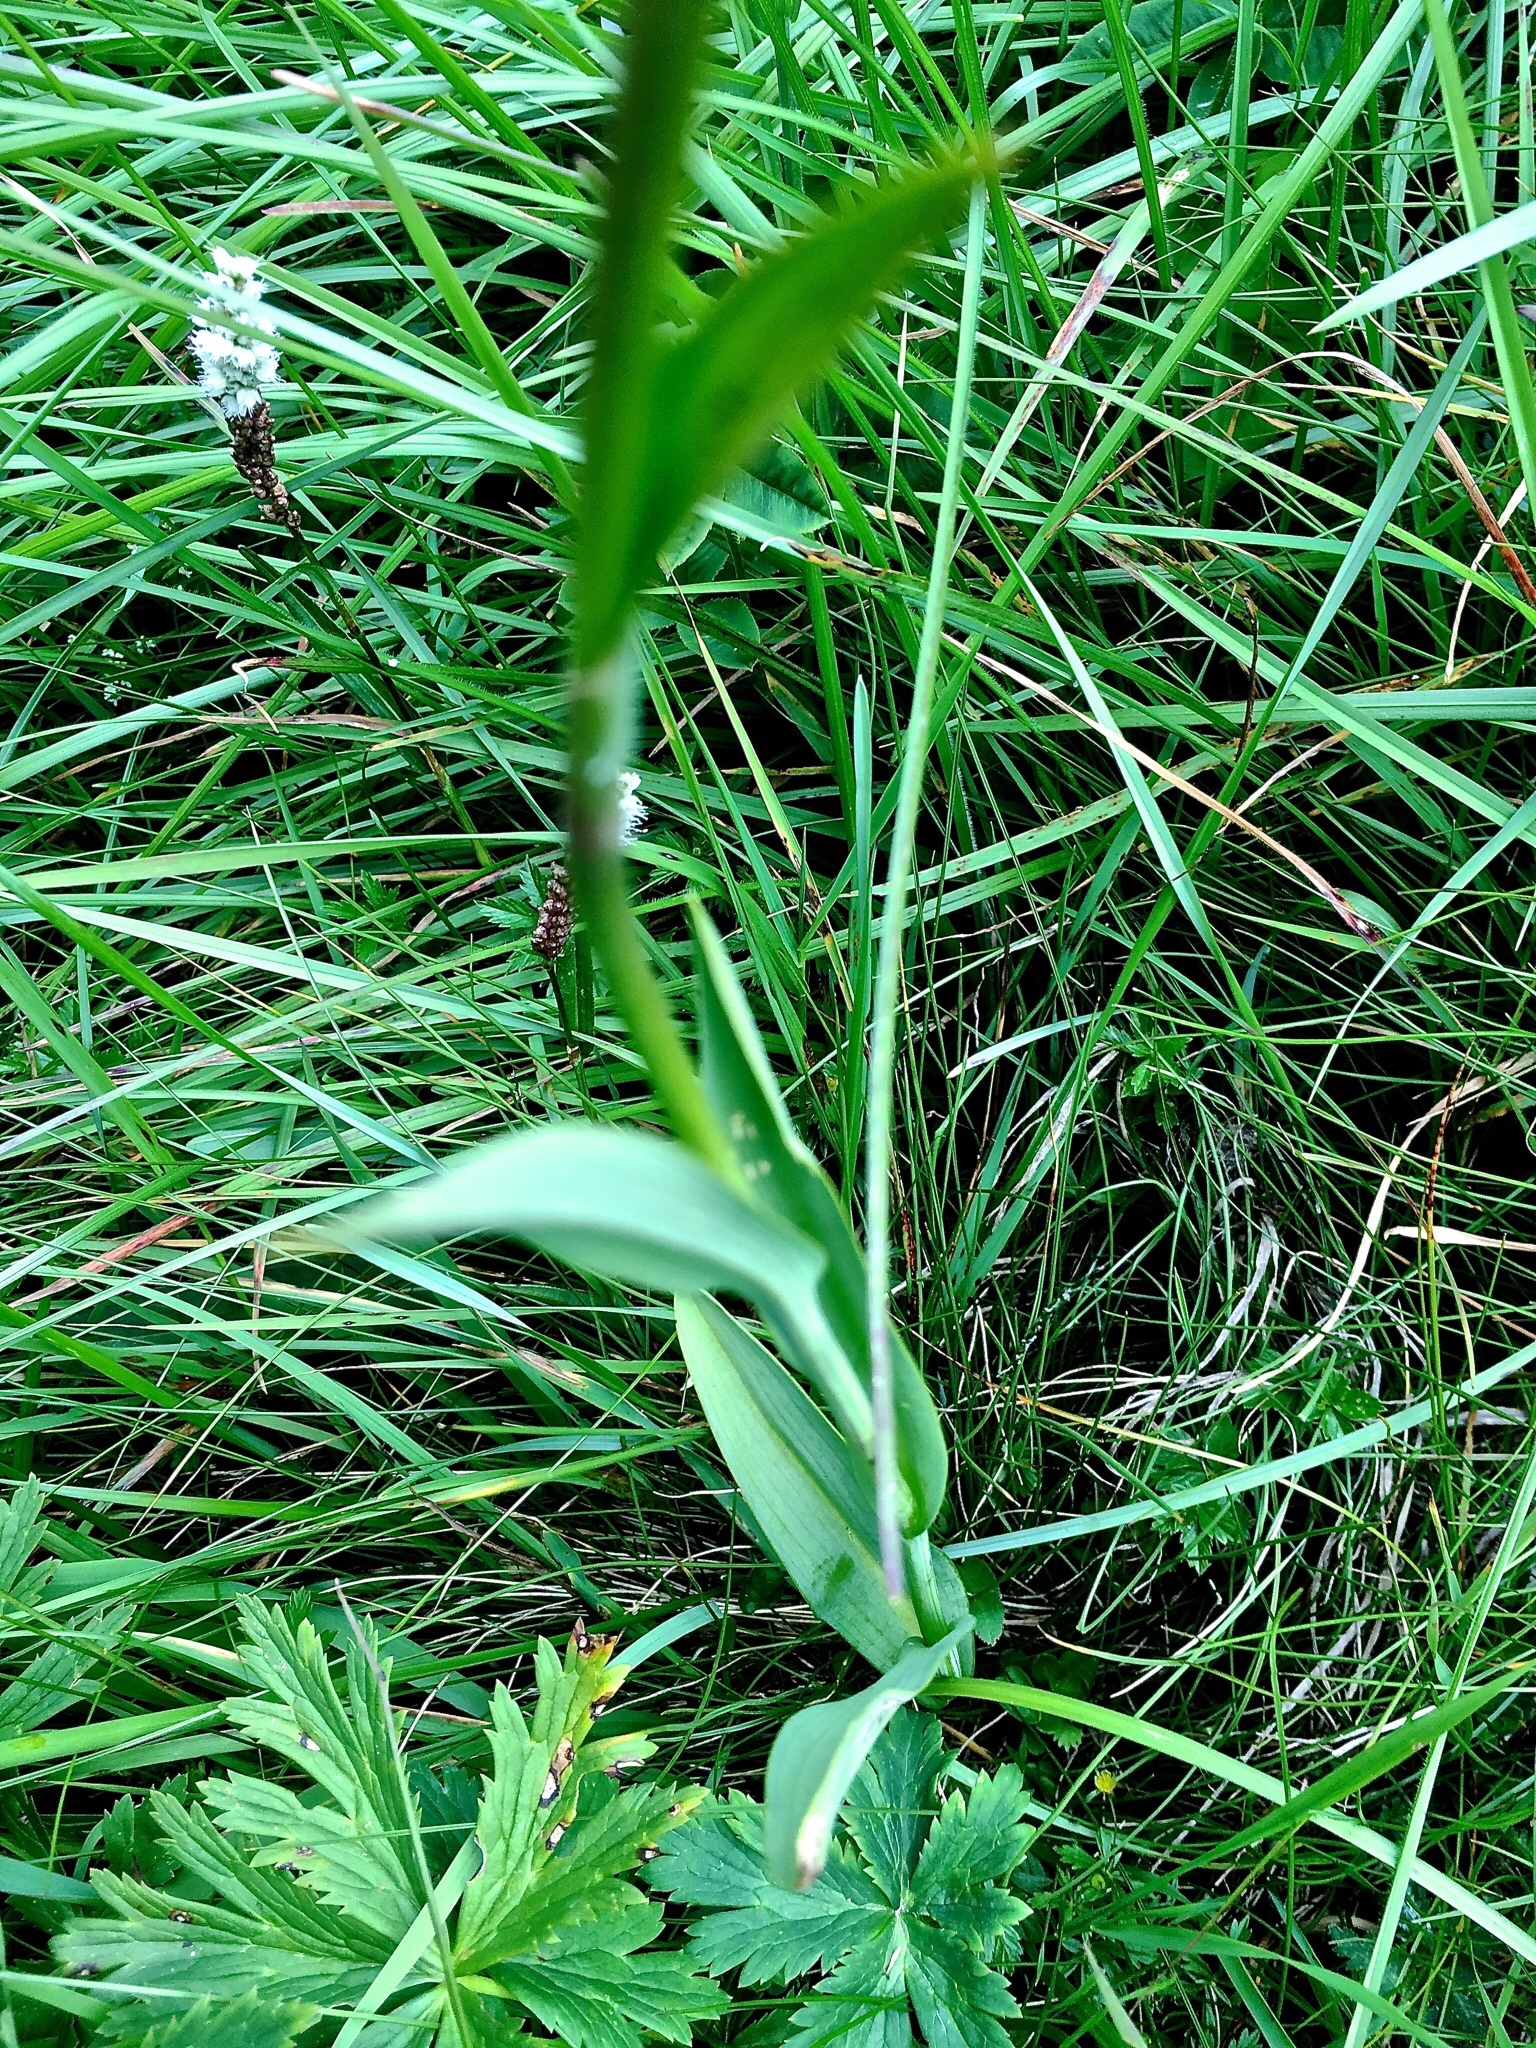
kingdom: Plantae
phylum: Tracheophyta
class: Liliopsida
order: Asparagales
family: Orchidaceae
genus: Traunsteinera
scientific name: Traunsteinera globosa
